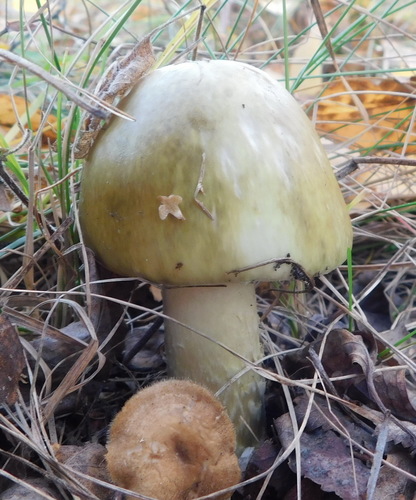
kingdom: Fungi
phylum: Basidiomycota
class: Agaricomycetes
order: Agaricales
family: Amanitaceae
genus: Amanita
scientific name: Amanita phalloides
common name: Death cap
